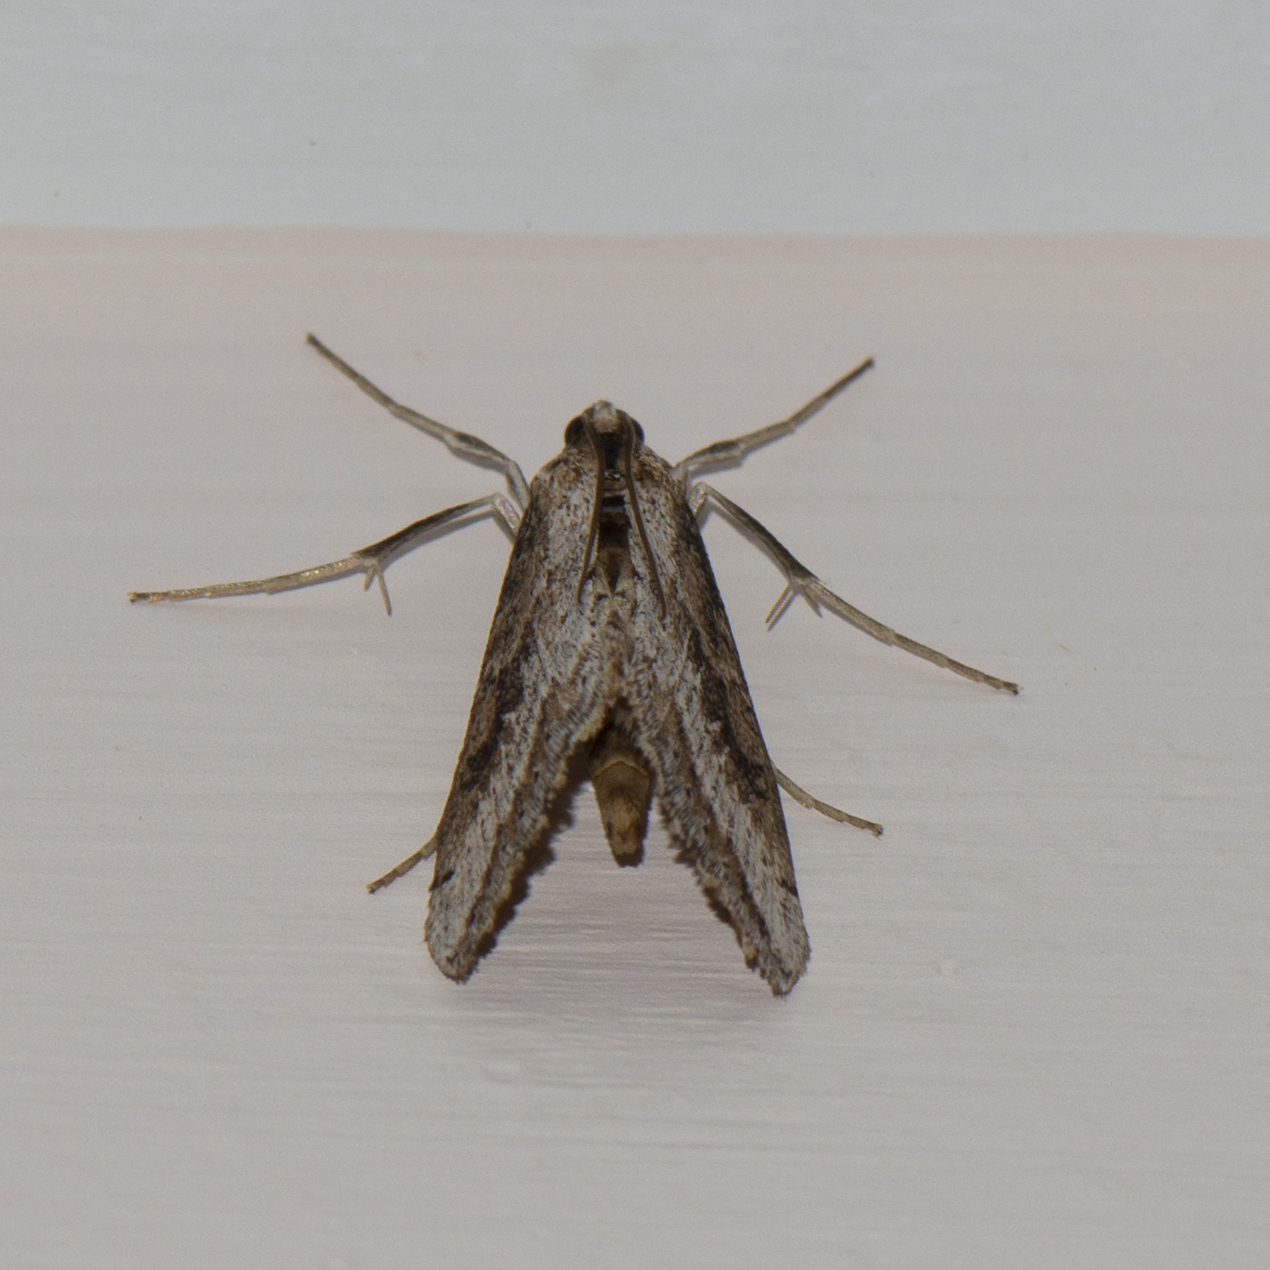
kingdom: Animalia
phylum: Arthropoda
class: Insecta
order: Lepidoptera
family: Crambidae
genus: Evergestis
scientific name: Evergestis isatidalis
